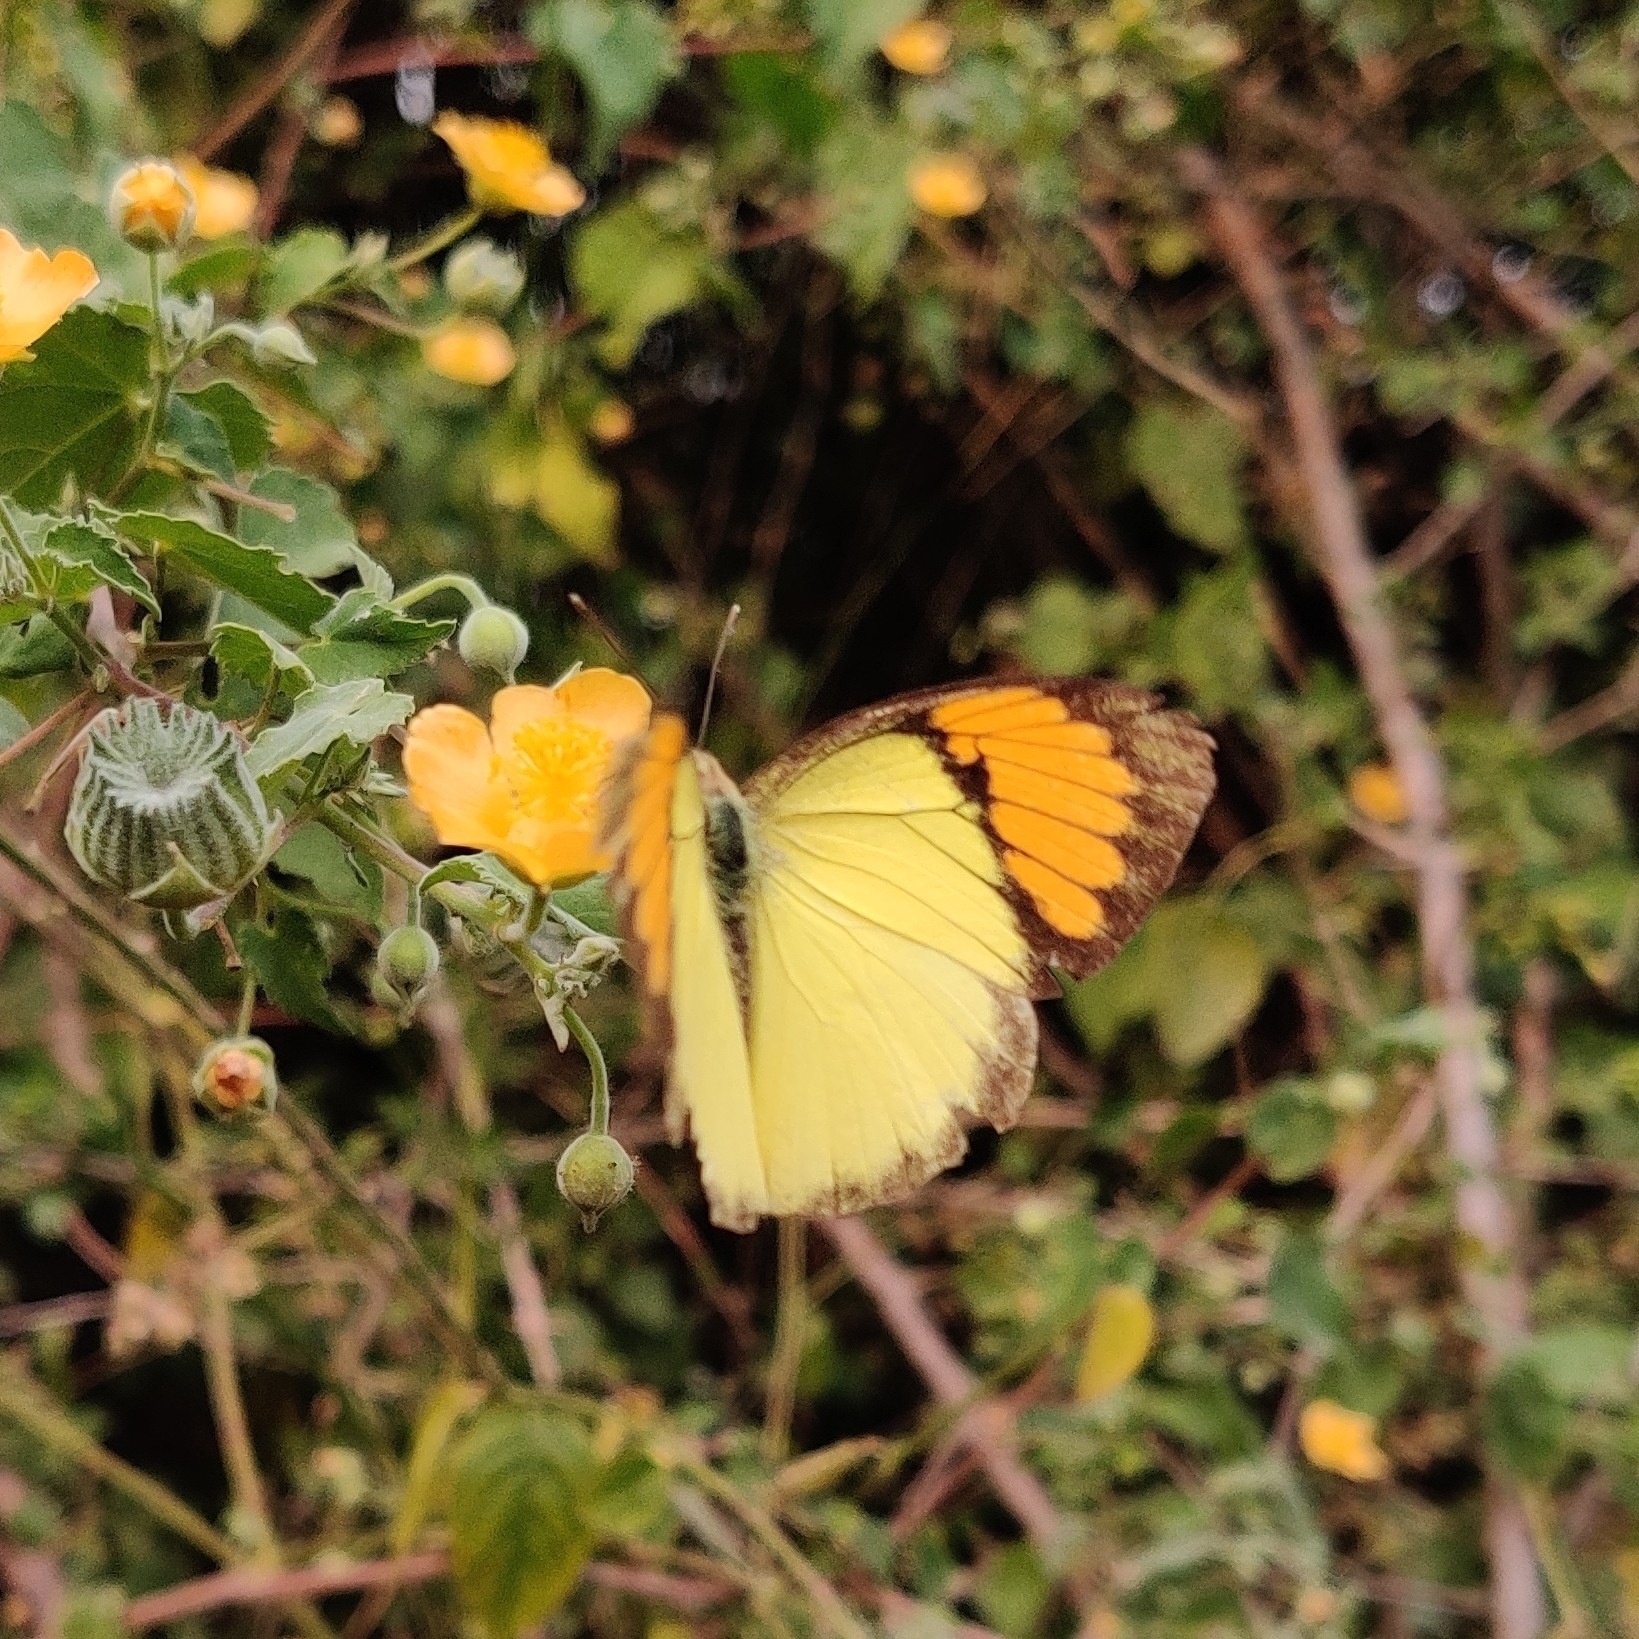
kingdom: Animalia
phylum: Arthropoda
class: Insecta
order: Lepidoptera
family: Pieridae
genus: Ixias
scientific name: Ixias pyrene
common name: Yellow orange tip
